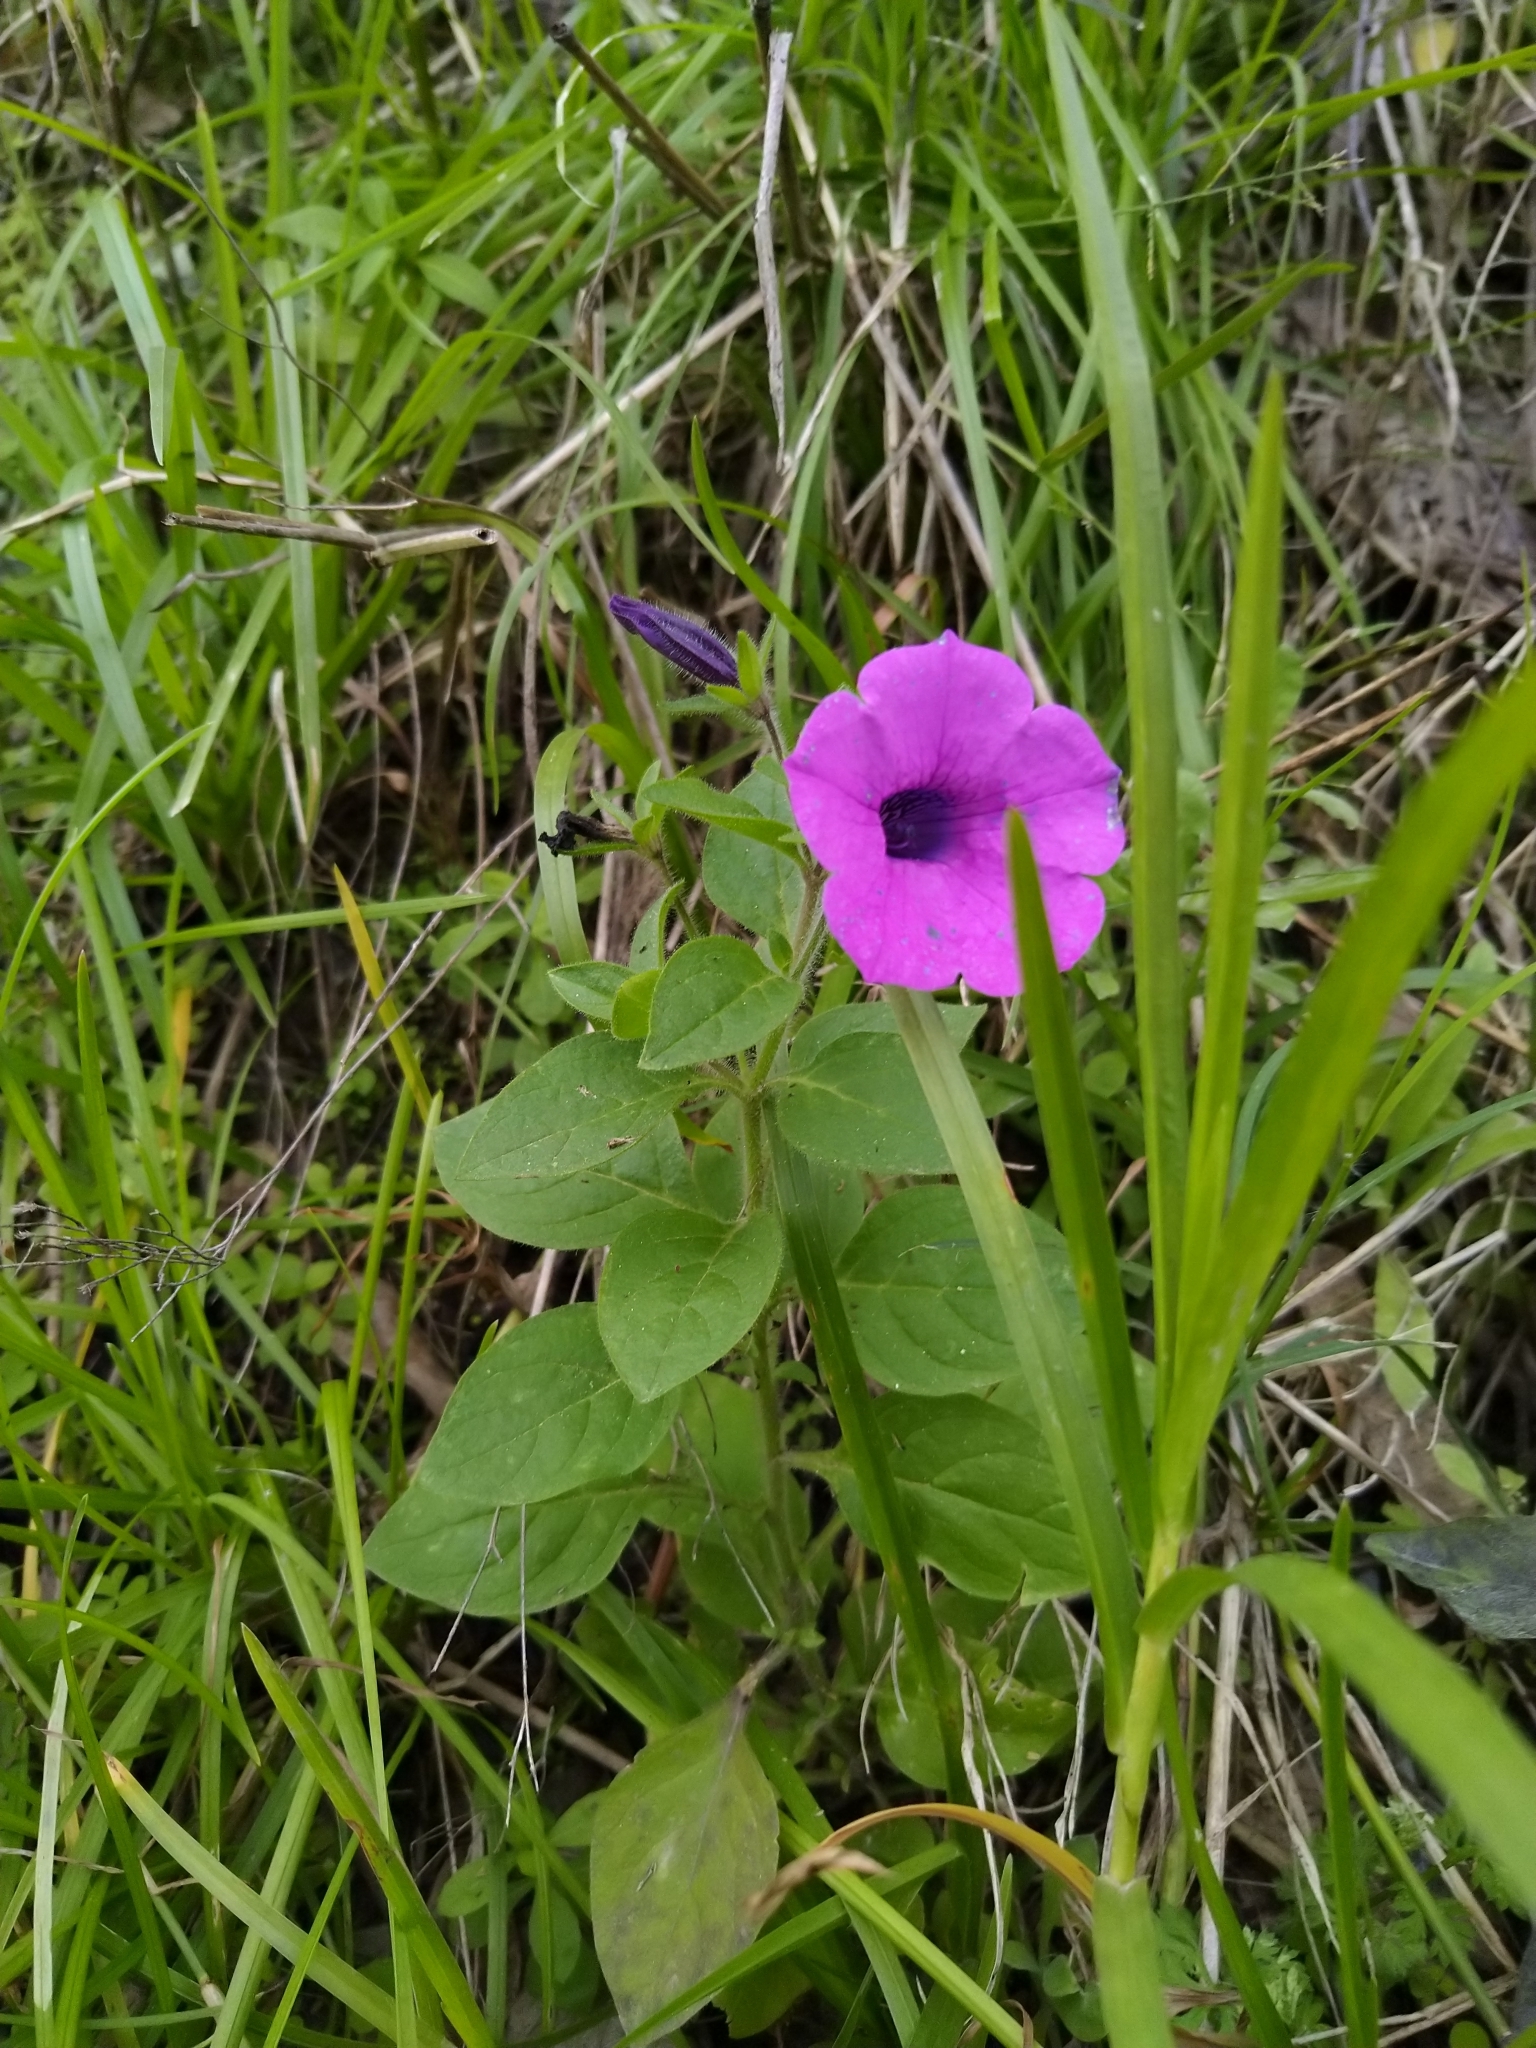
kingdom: Plantae
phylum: Tracheophyta
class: Magnoliopsida
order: Solanales
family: Solanaceae
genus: Petunia
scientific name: Petunia integrifolia
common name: Violet-flower petunia
